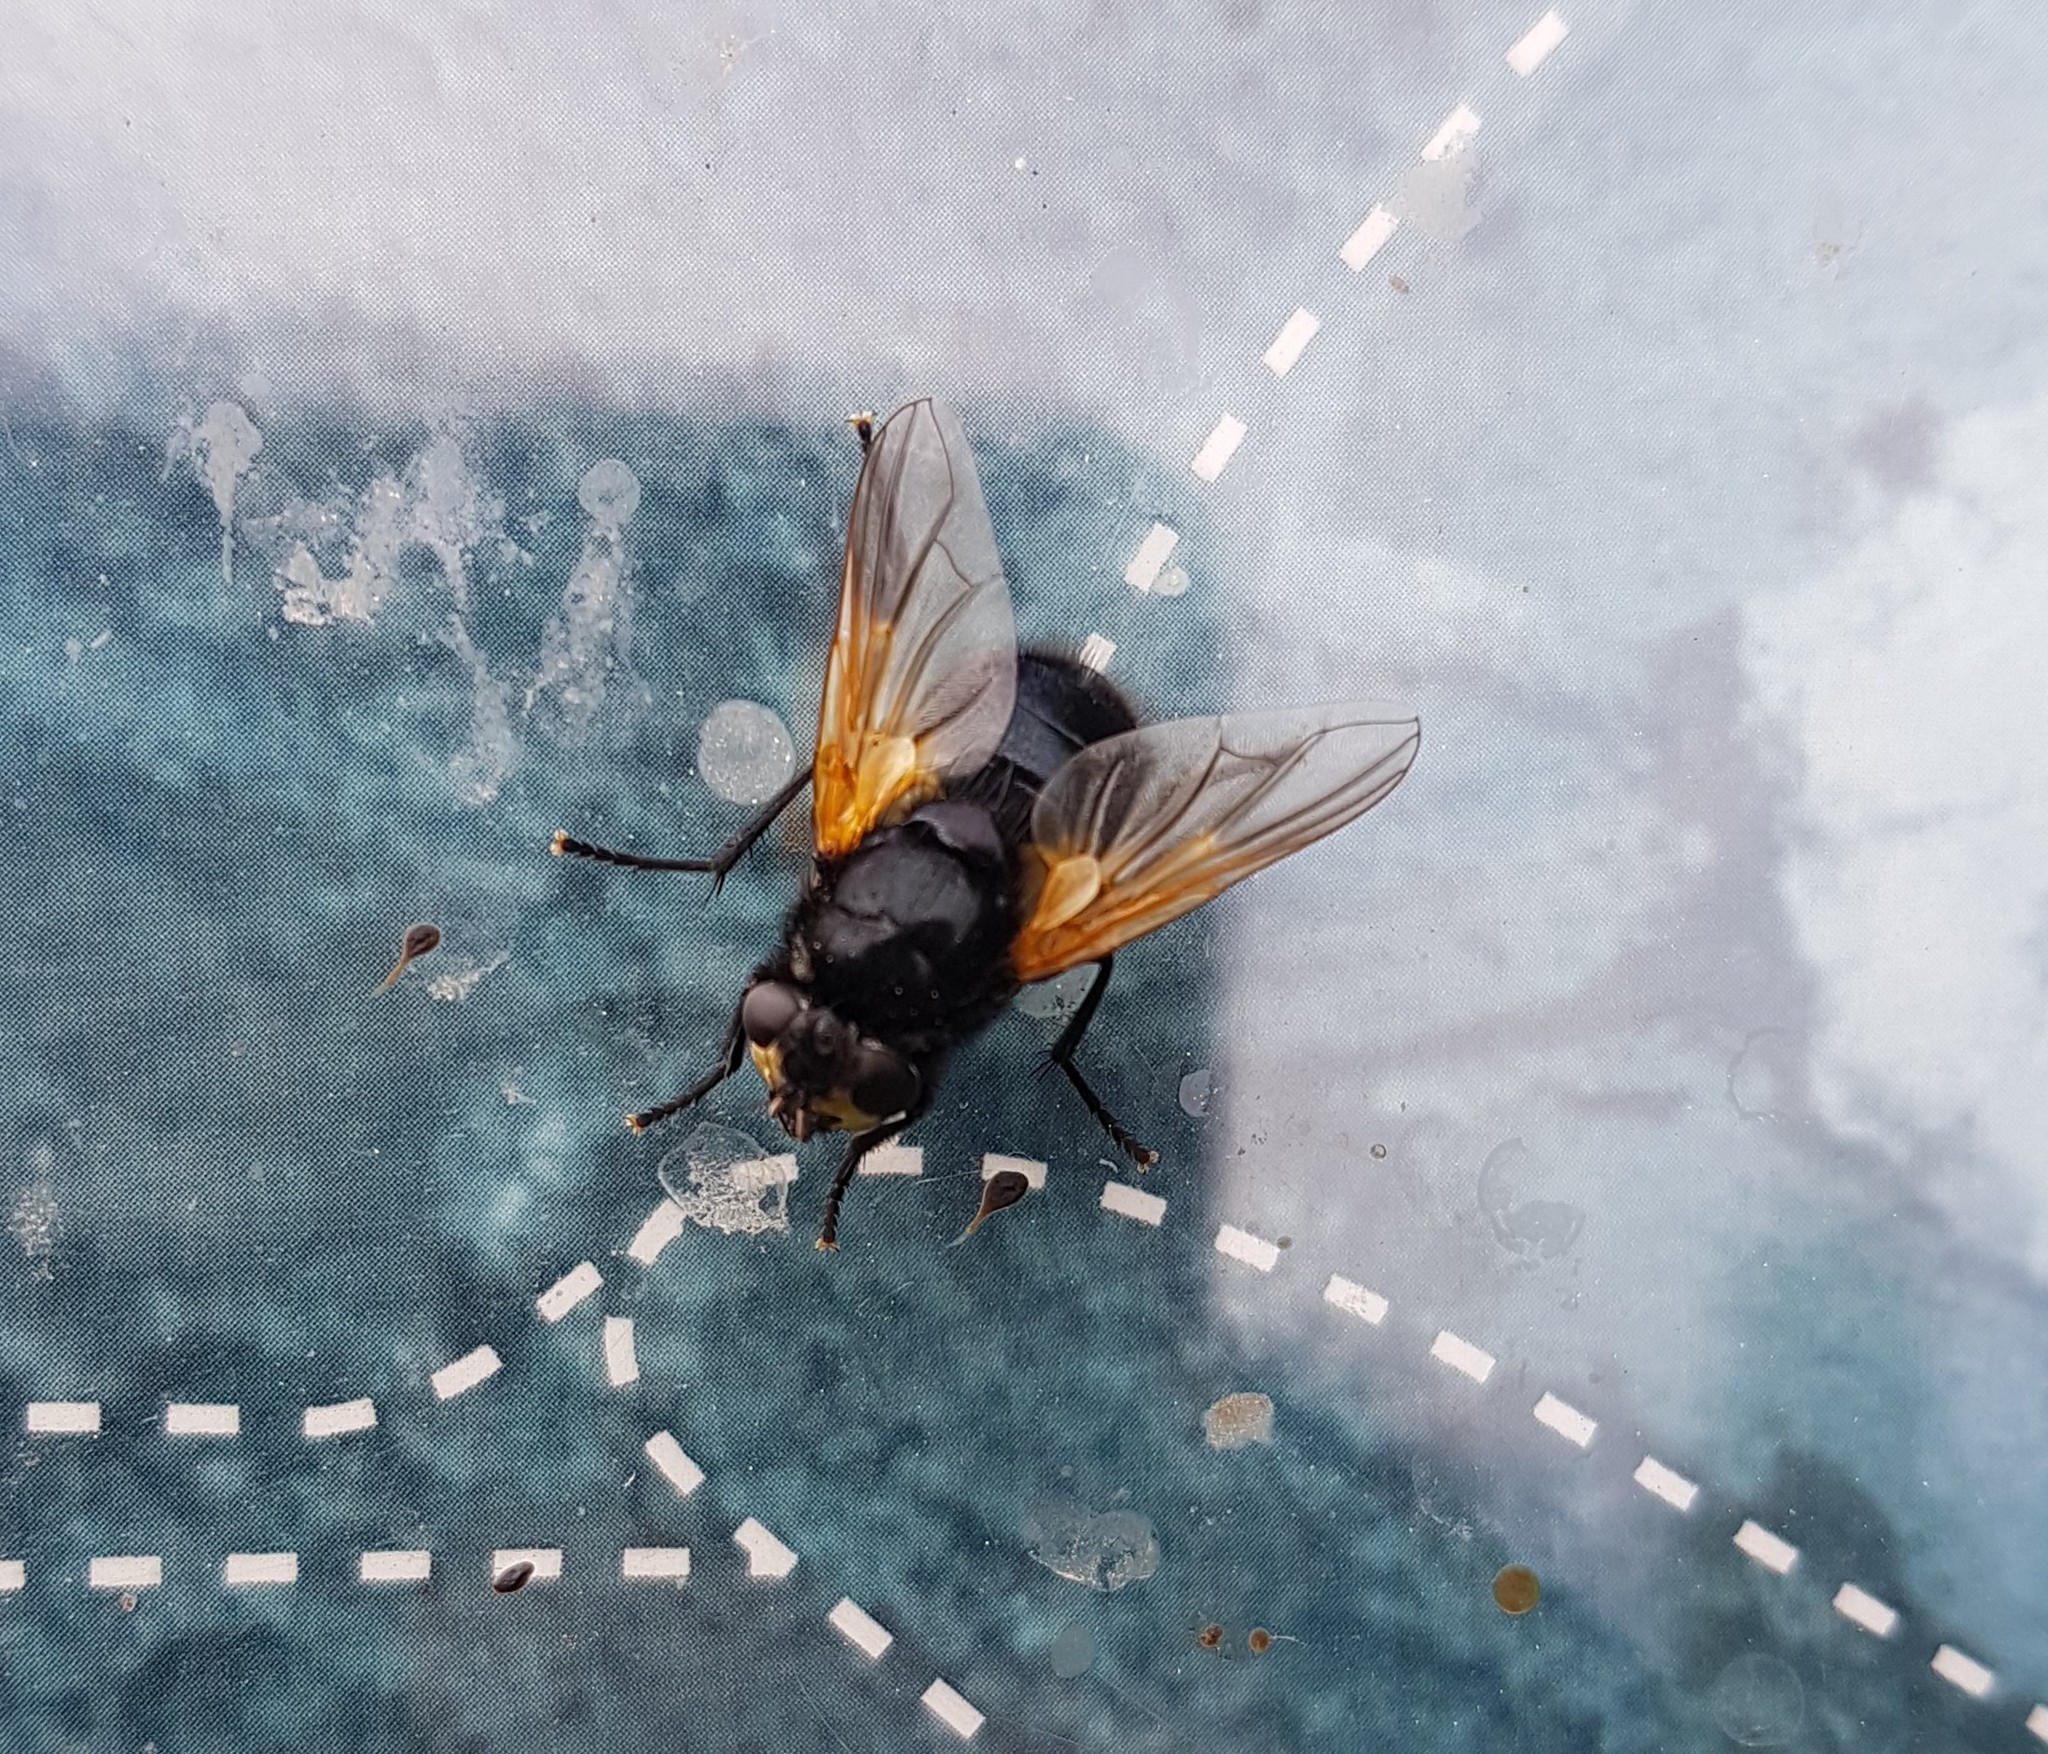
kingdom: Animalia
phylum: Arthropoda
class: Insecta
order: Diptera
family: Muscidae
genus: Mesembrina
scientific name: Mesembrina meridiana
